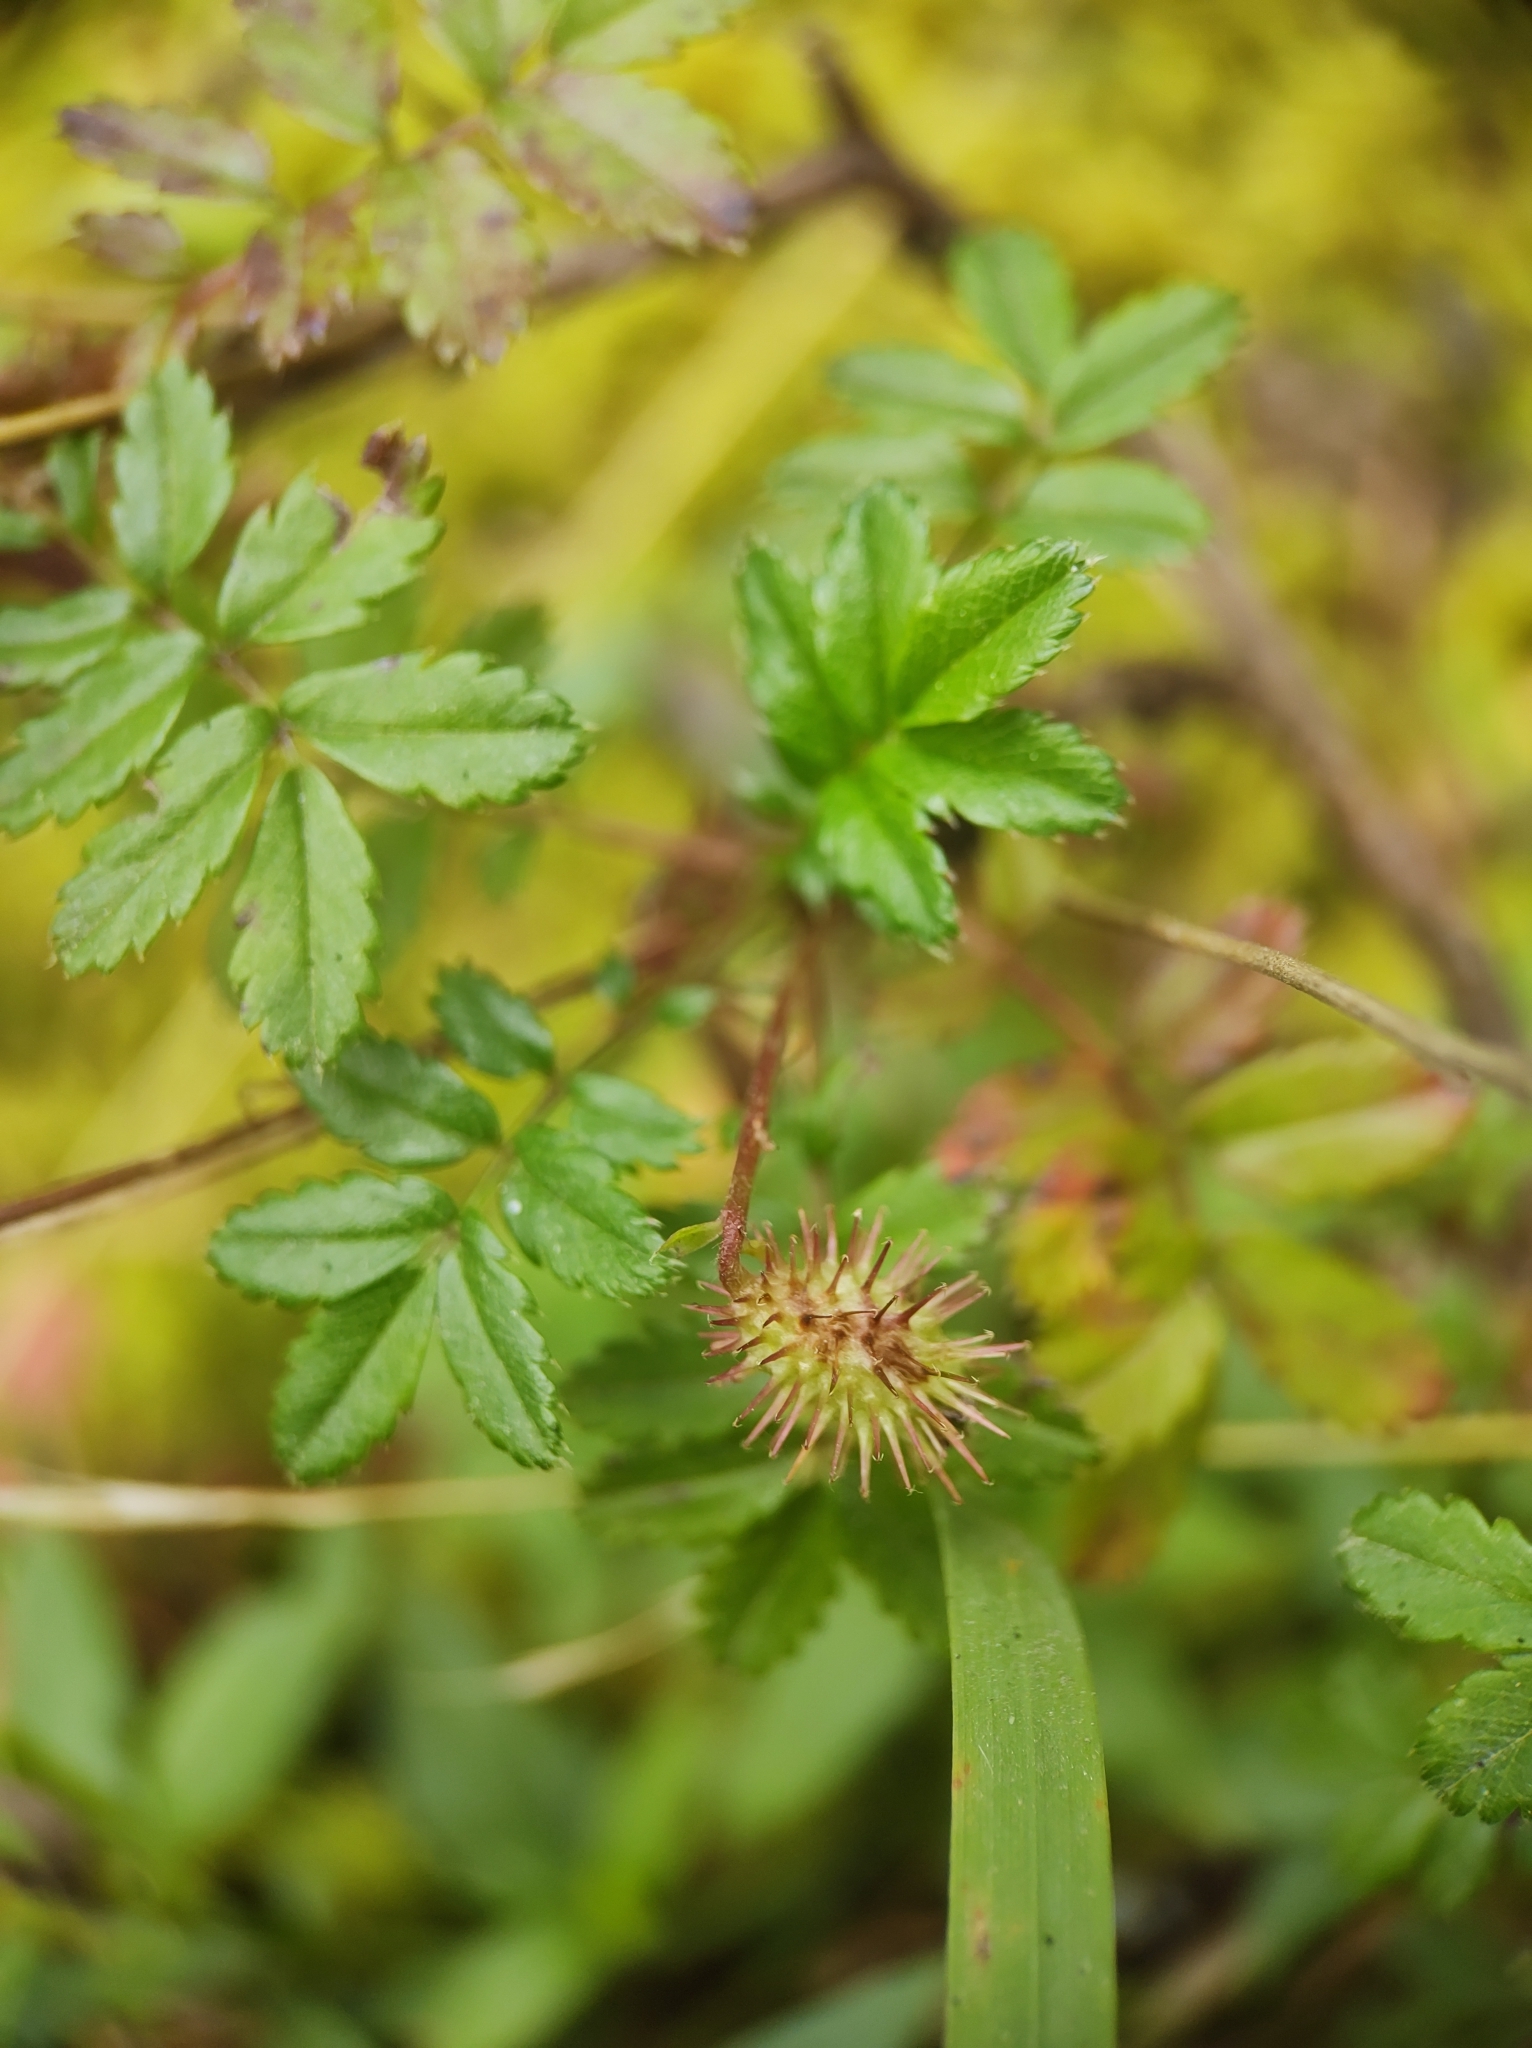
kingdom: Plantae
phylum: Tracheophyta
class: Magnoliopsida
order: Rosales
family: Rosaceae
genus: Acaena
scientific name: Acaena elongata
